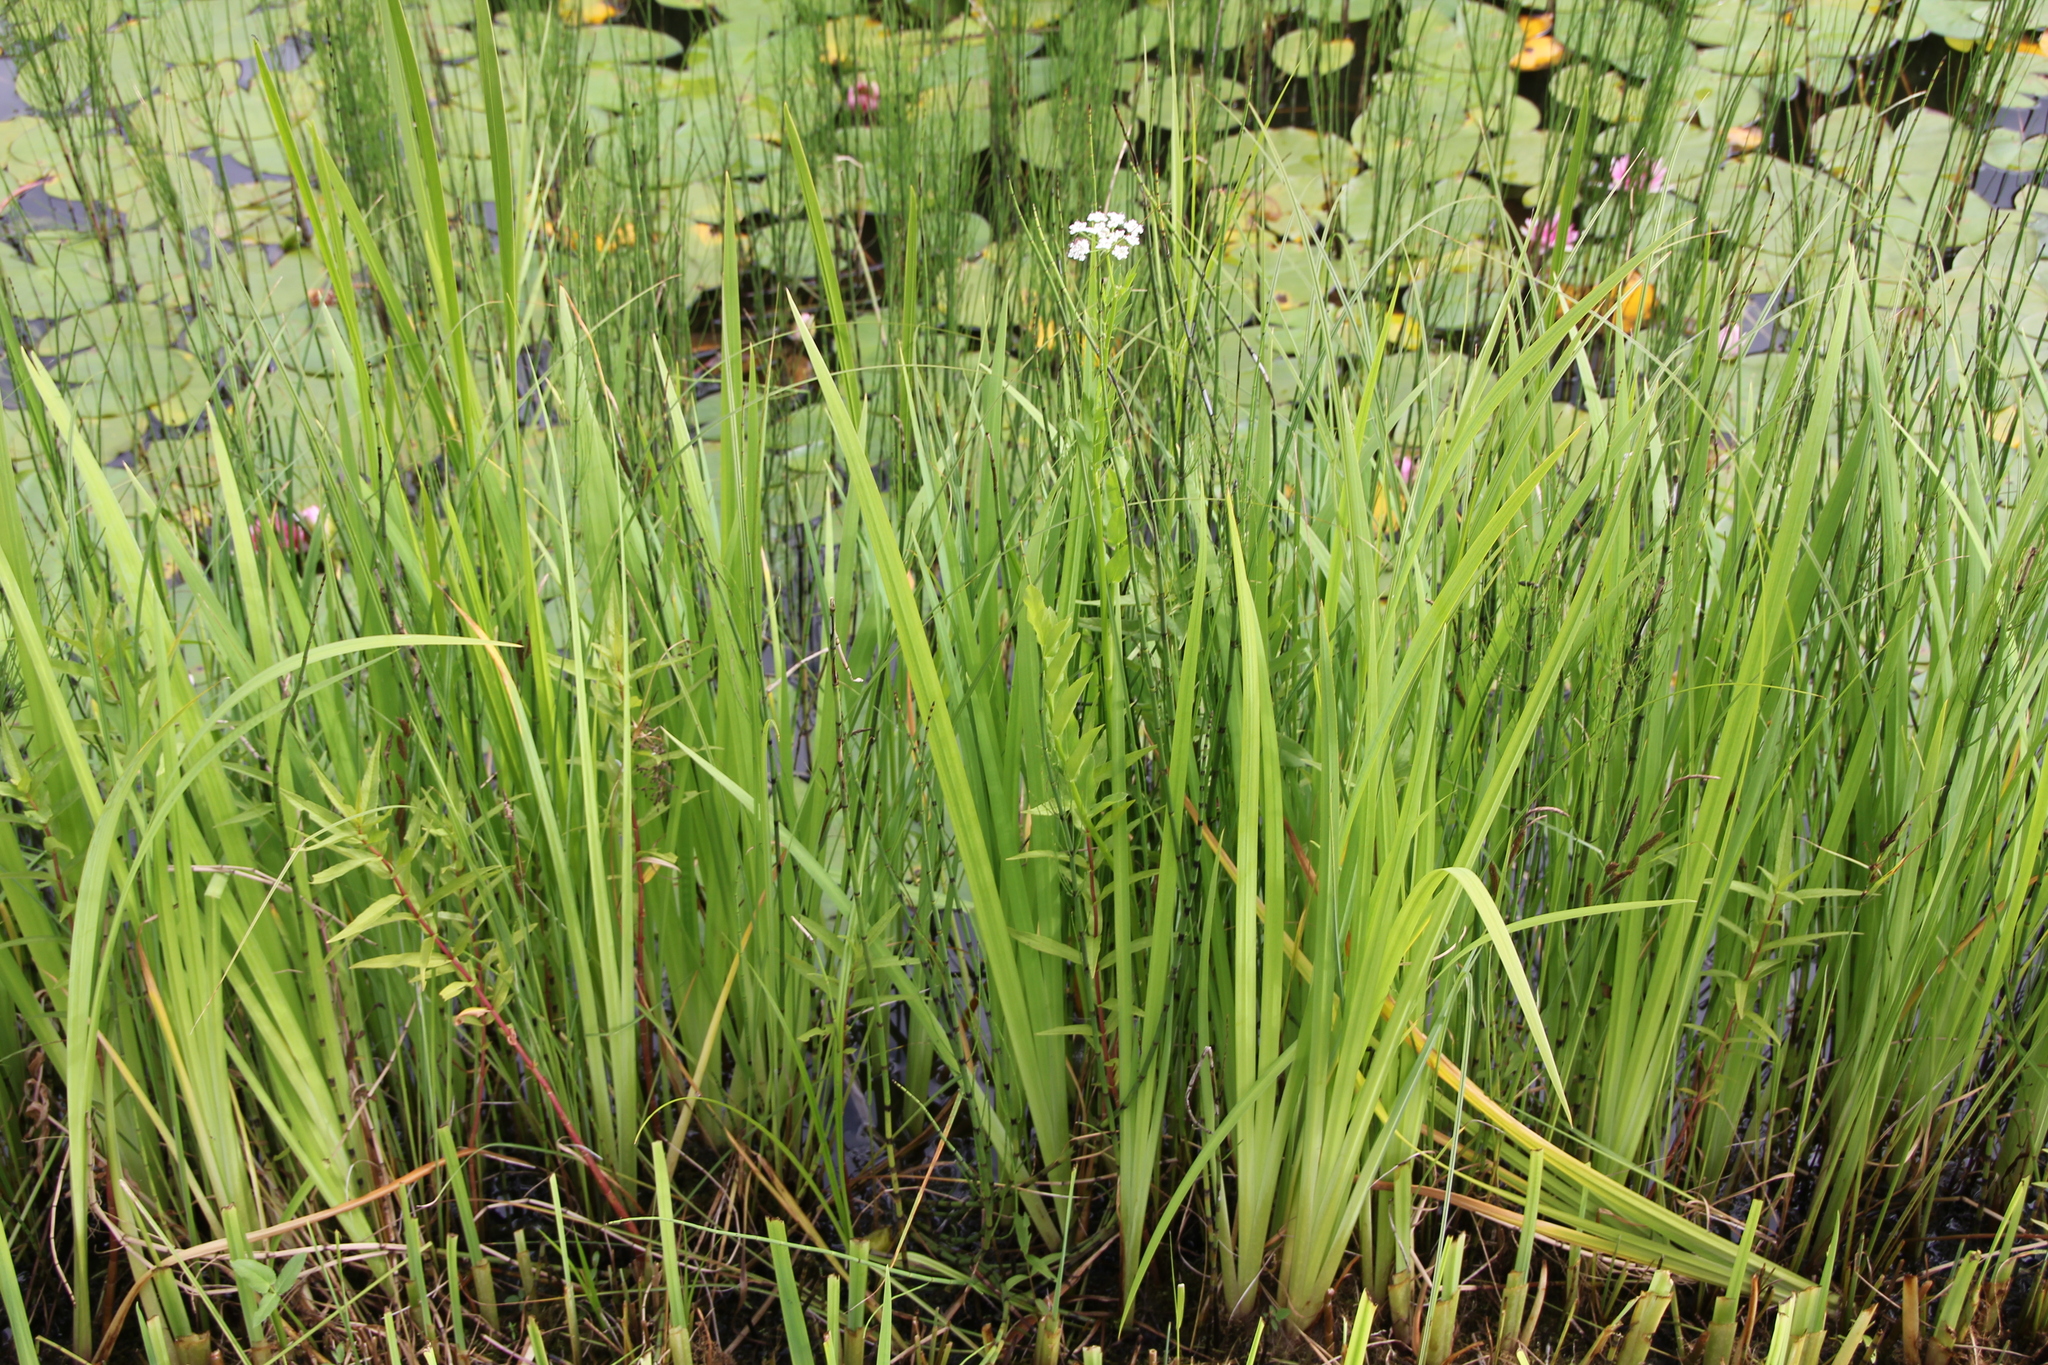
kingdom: Plantae
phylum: Tracheophyta
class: Magnoliopsida
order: Apiales
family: Apiaceae
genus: Sium
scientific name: Sium latifolium
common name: Greater water-parsnip
